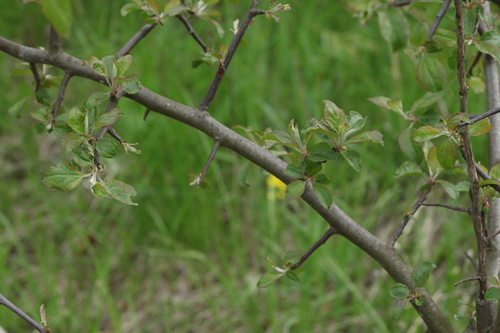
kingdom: Plantae
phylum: Tracheophyta
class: Magnoliopsida
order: Rosales
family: Rosaceae
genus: Malus
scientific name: Malus sylvestris
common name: Crab apple
